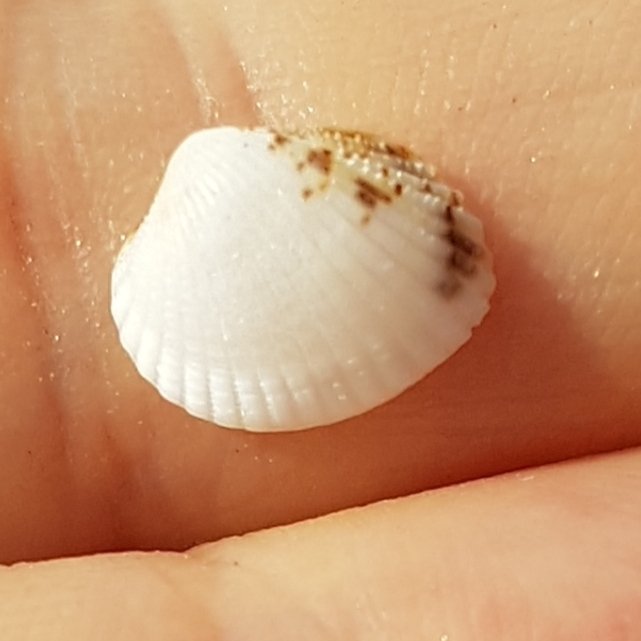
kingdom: Animalia
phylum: Mollusca
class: Bivalvia
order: Cardiida
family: Cardiidae
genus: Parvicardium
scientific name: Parvicardium scriptum
